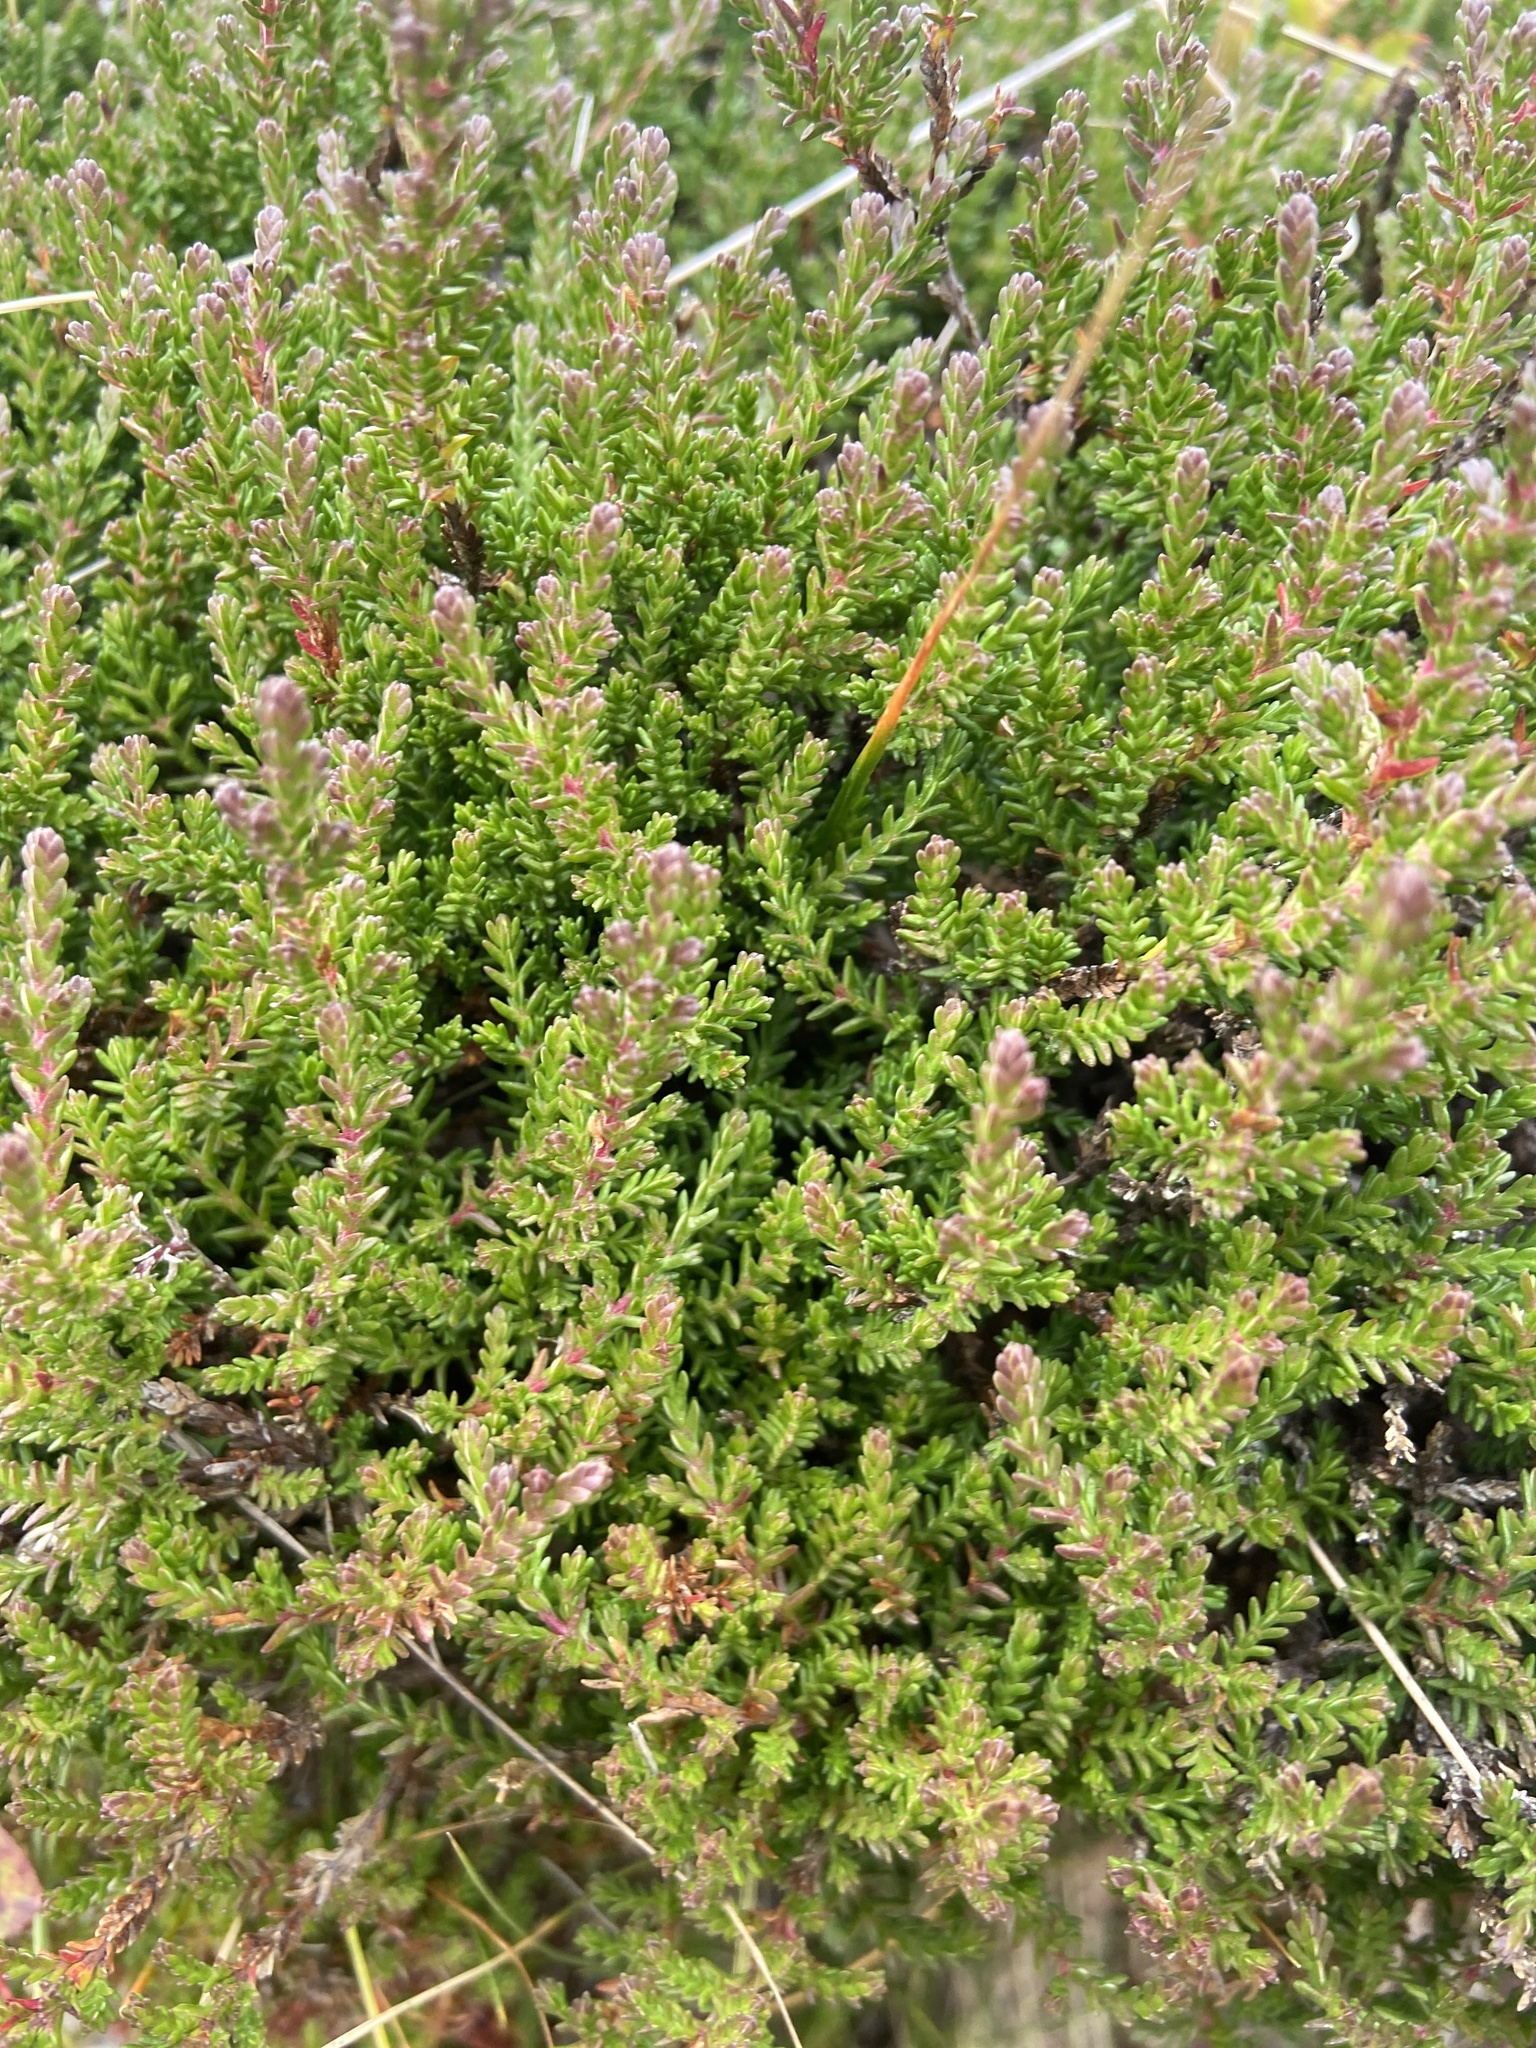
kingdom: Plantae
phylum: Tracheophyta
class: Magnoliopsida
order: Ericales
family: Ericaceae
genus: Calluna
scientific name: Calluna vulgaris
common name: Heather
